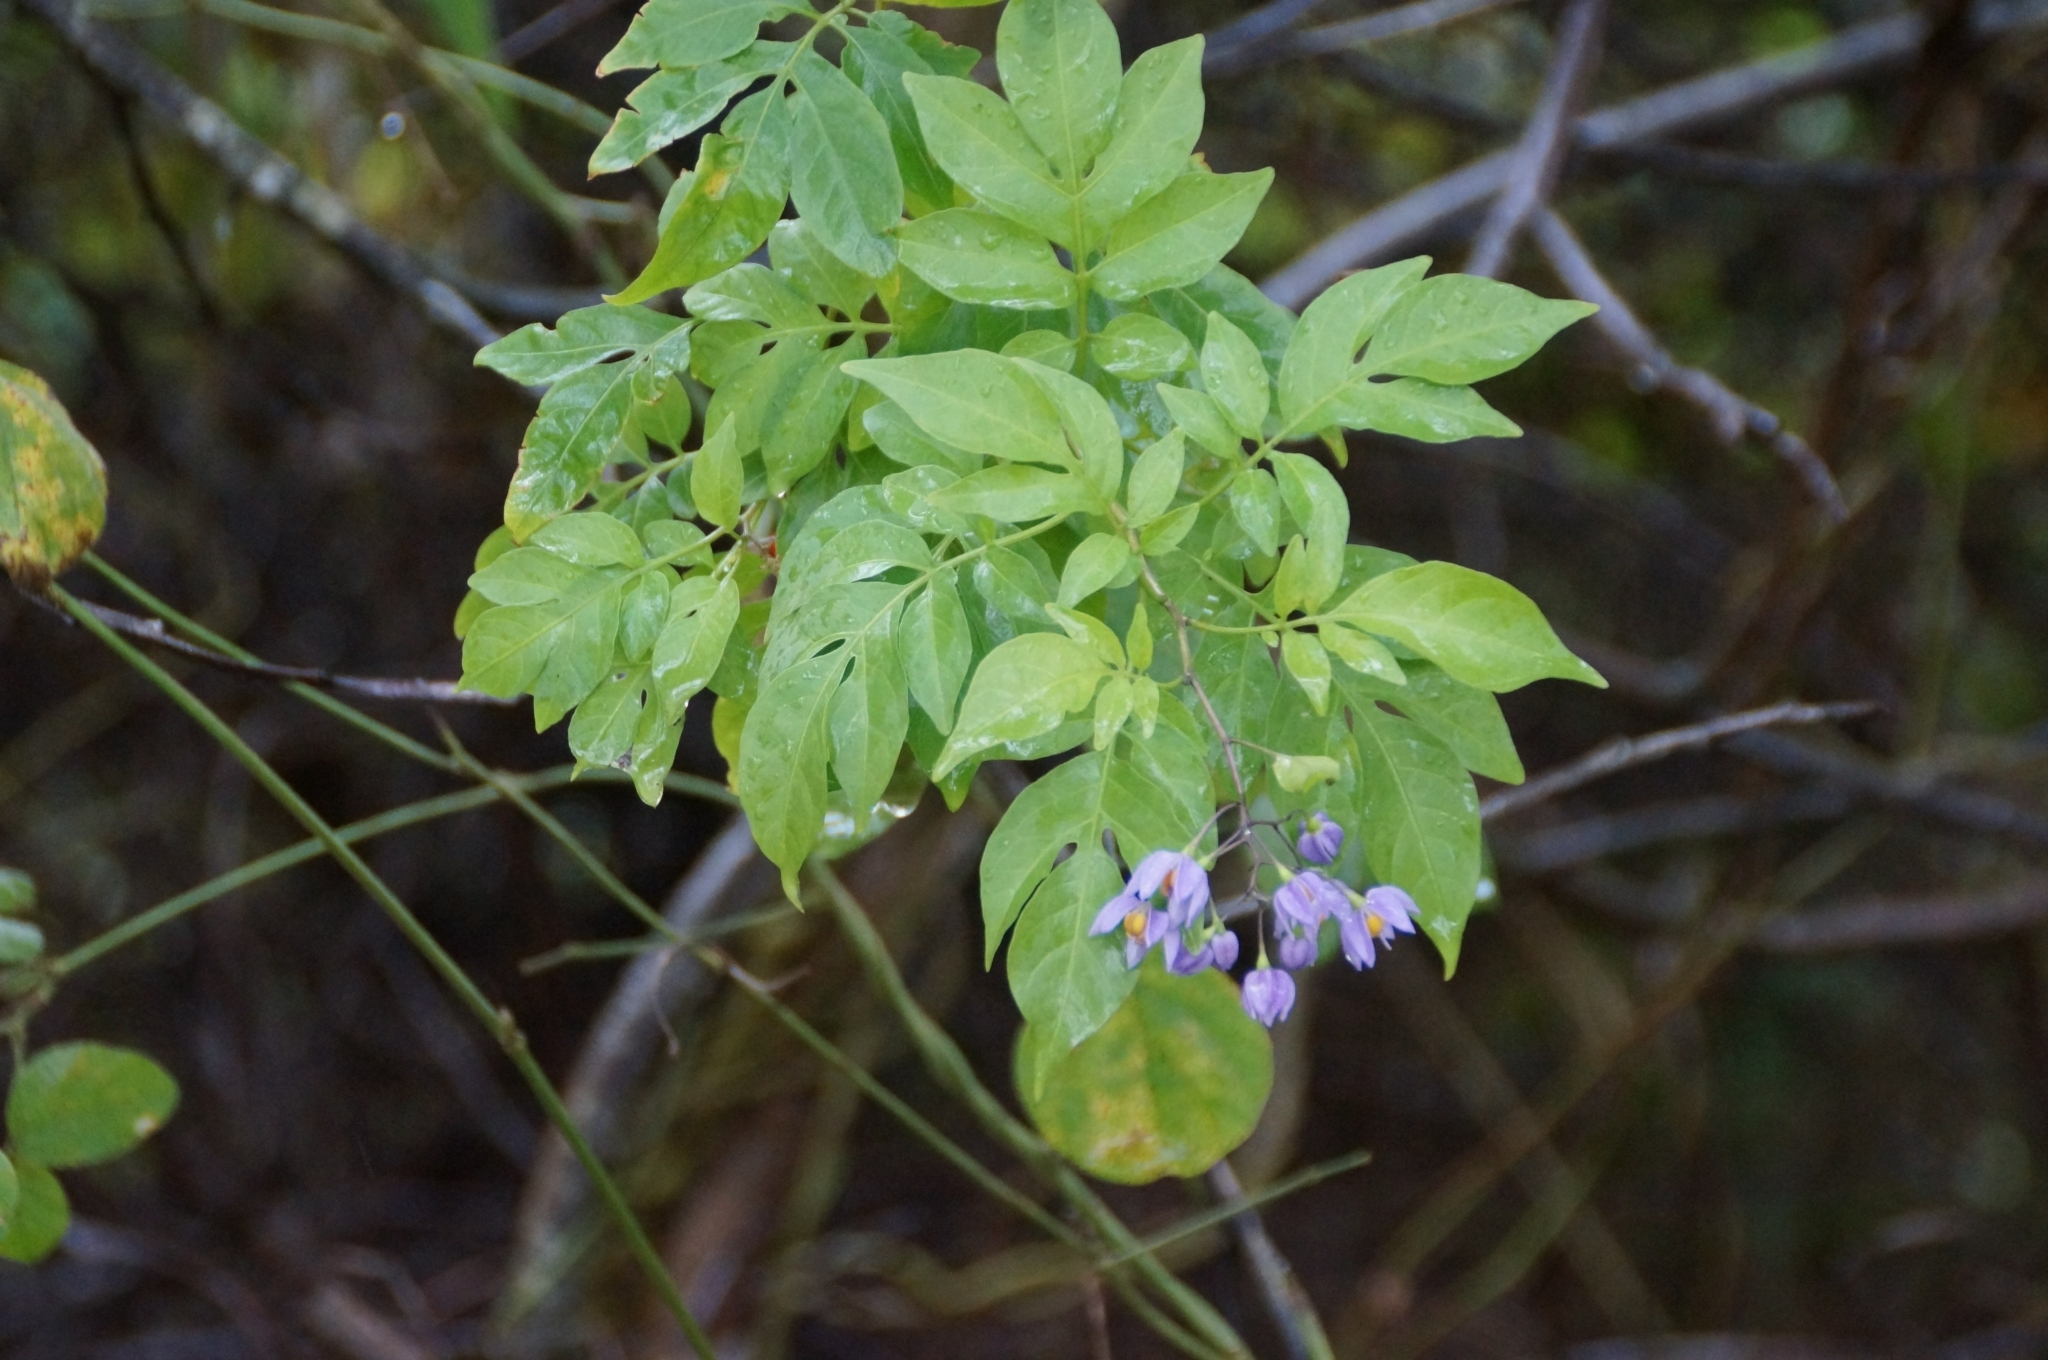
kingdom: Plantae
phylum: Tracheophyta
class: Magnoliopsida
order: Solanales
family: Solanaceae
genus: Solanum
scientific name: Solanum seaforthianum
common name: Brazilian nightshade
